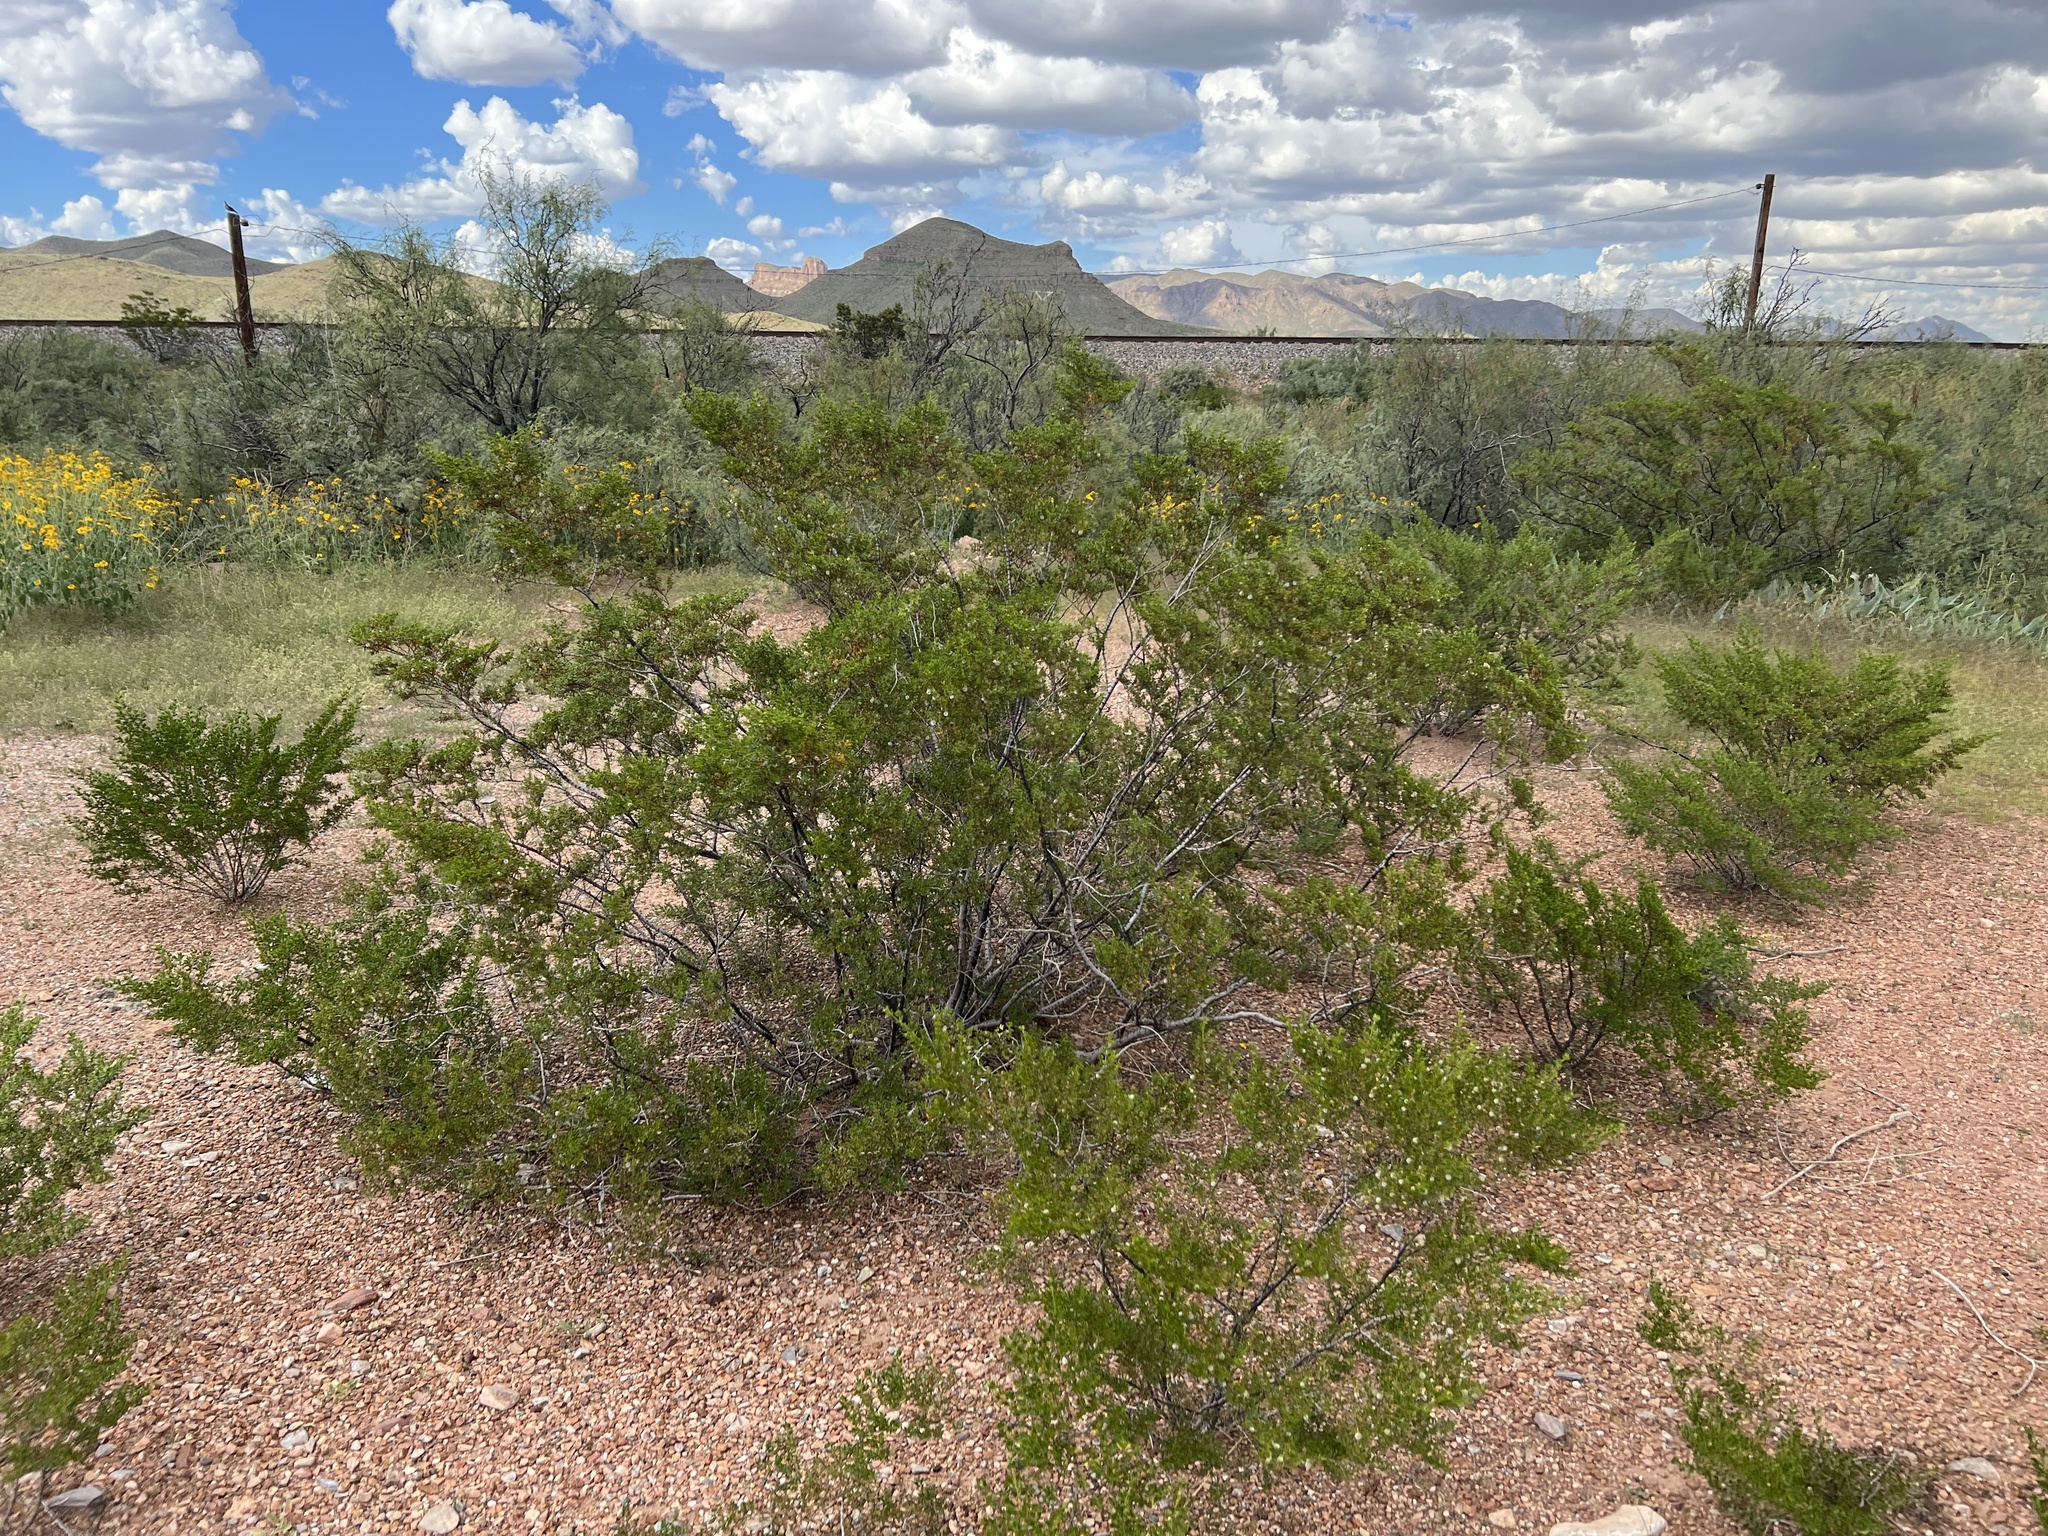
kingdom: Plantae
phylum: Tracheophyta
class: Magnoliopsida
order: Zygophyllales
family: Zygophyllaceae
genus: Larrea
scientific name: Larrea tridentata
